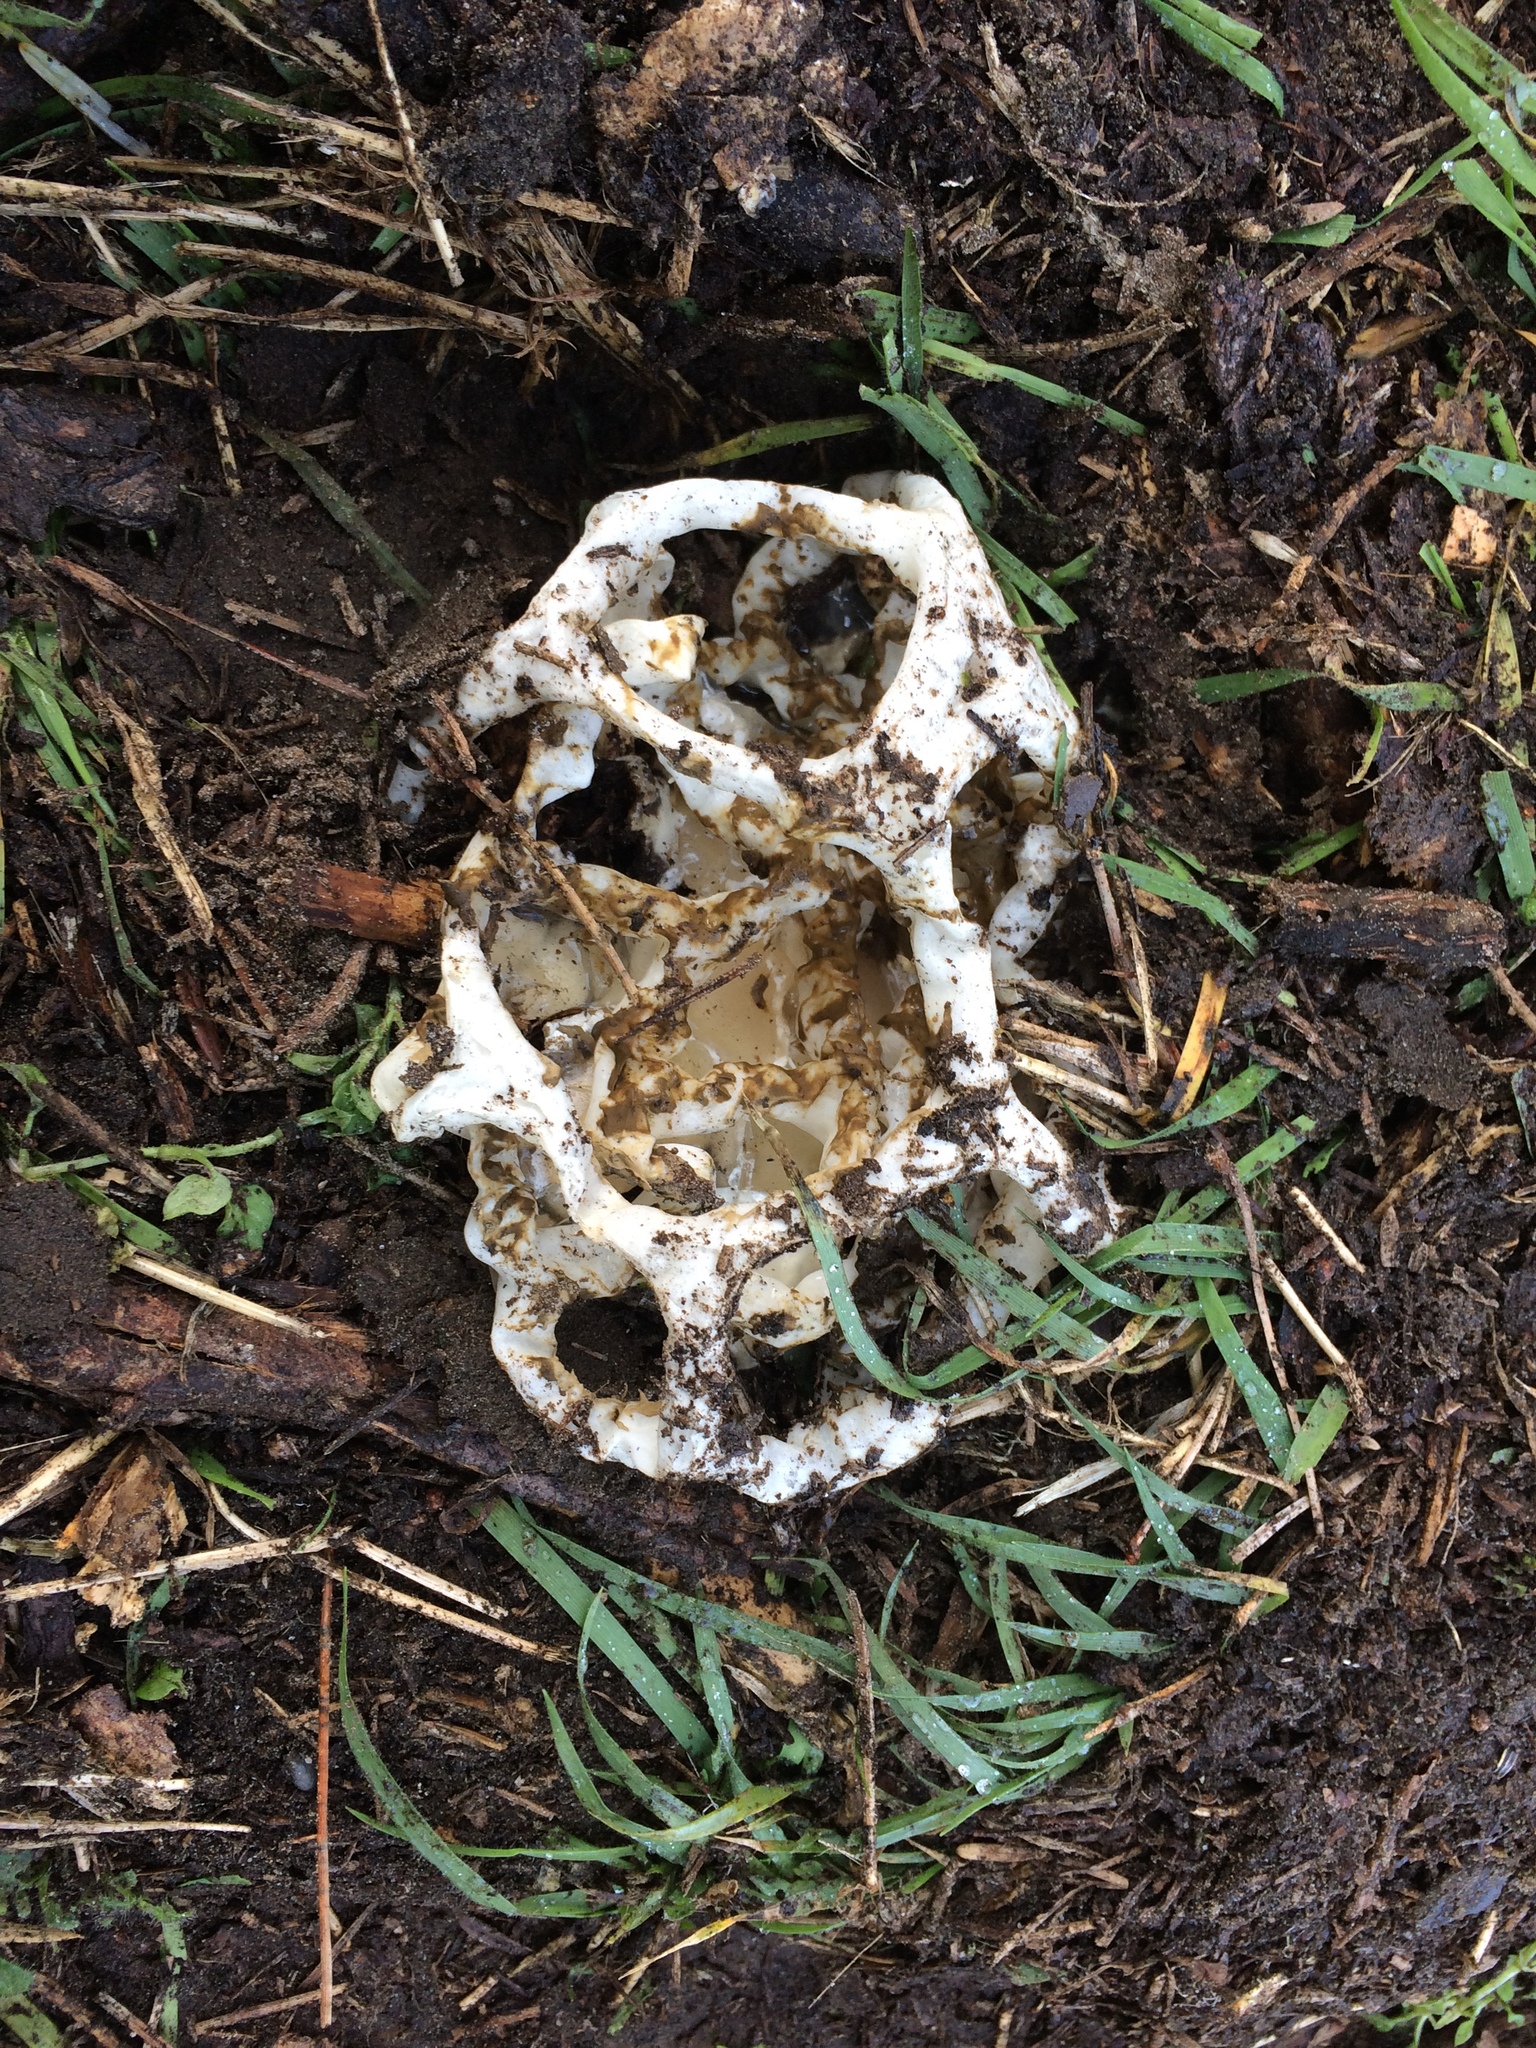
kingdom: Fungi
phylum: Basidiomycota
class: Agaricomycetes
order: Phallales
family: Phallaceae
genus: Ileodictyon
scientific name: Ileodictyon cibarium
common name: Basket fungus
